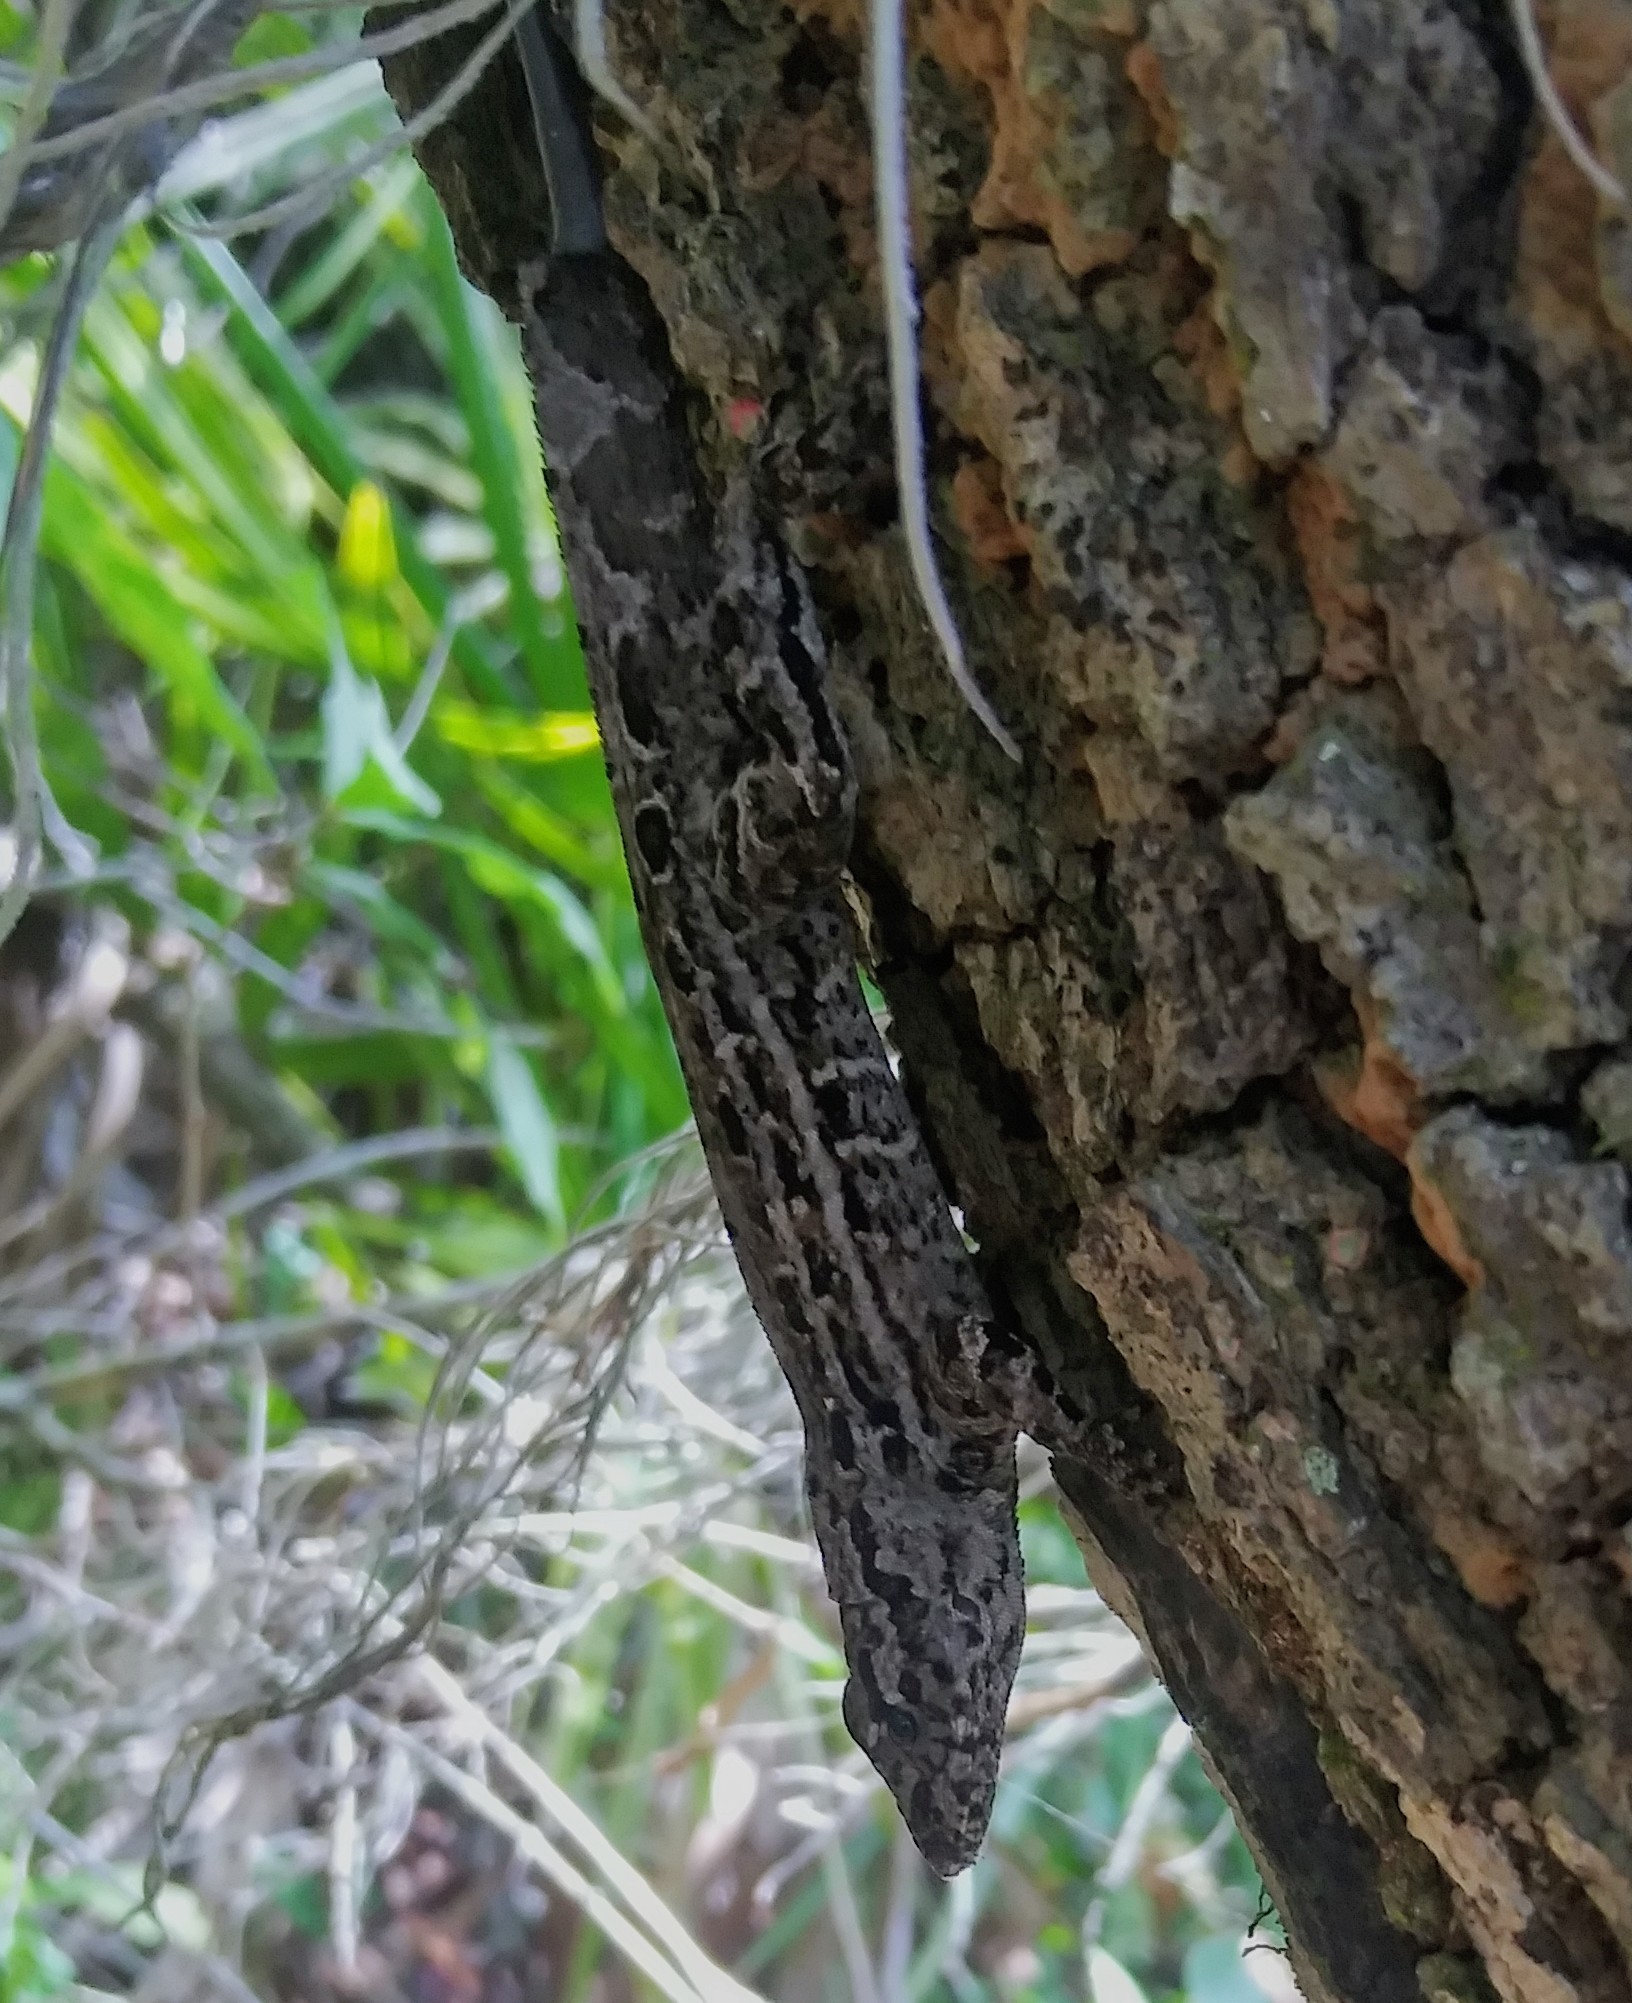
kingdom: Animalia
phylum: Chordata
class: Squamata
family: Dactyloidae
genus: Anolis
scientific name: Anolis sagrei
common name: Brown anole
